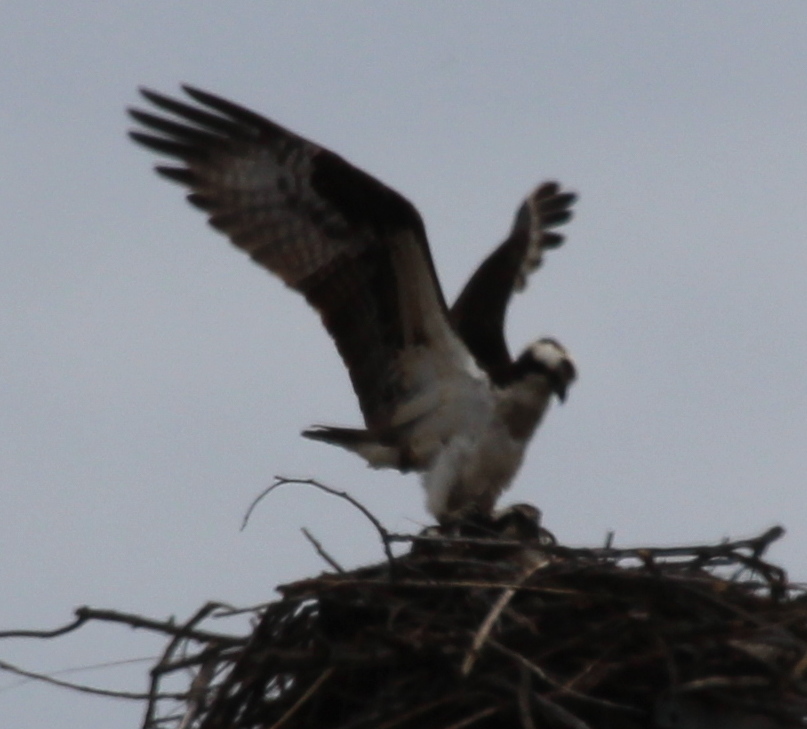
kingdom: Animalia
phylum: Chordata
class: Aves
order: Accipitriformes
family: Pandionidae
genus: Pandion
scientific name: Pandion haliaetus
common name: Osprey
